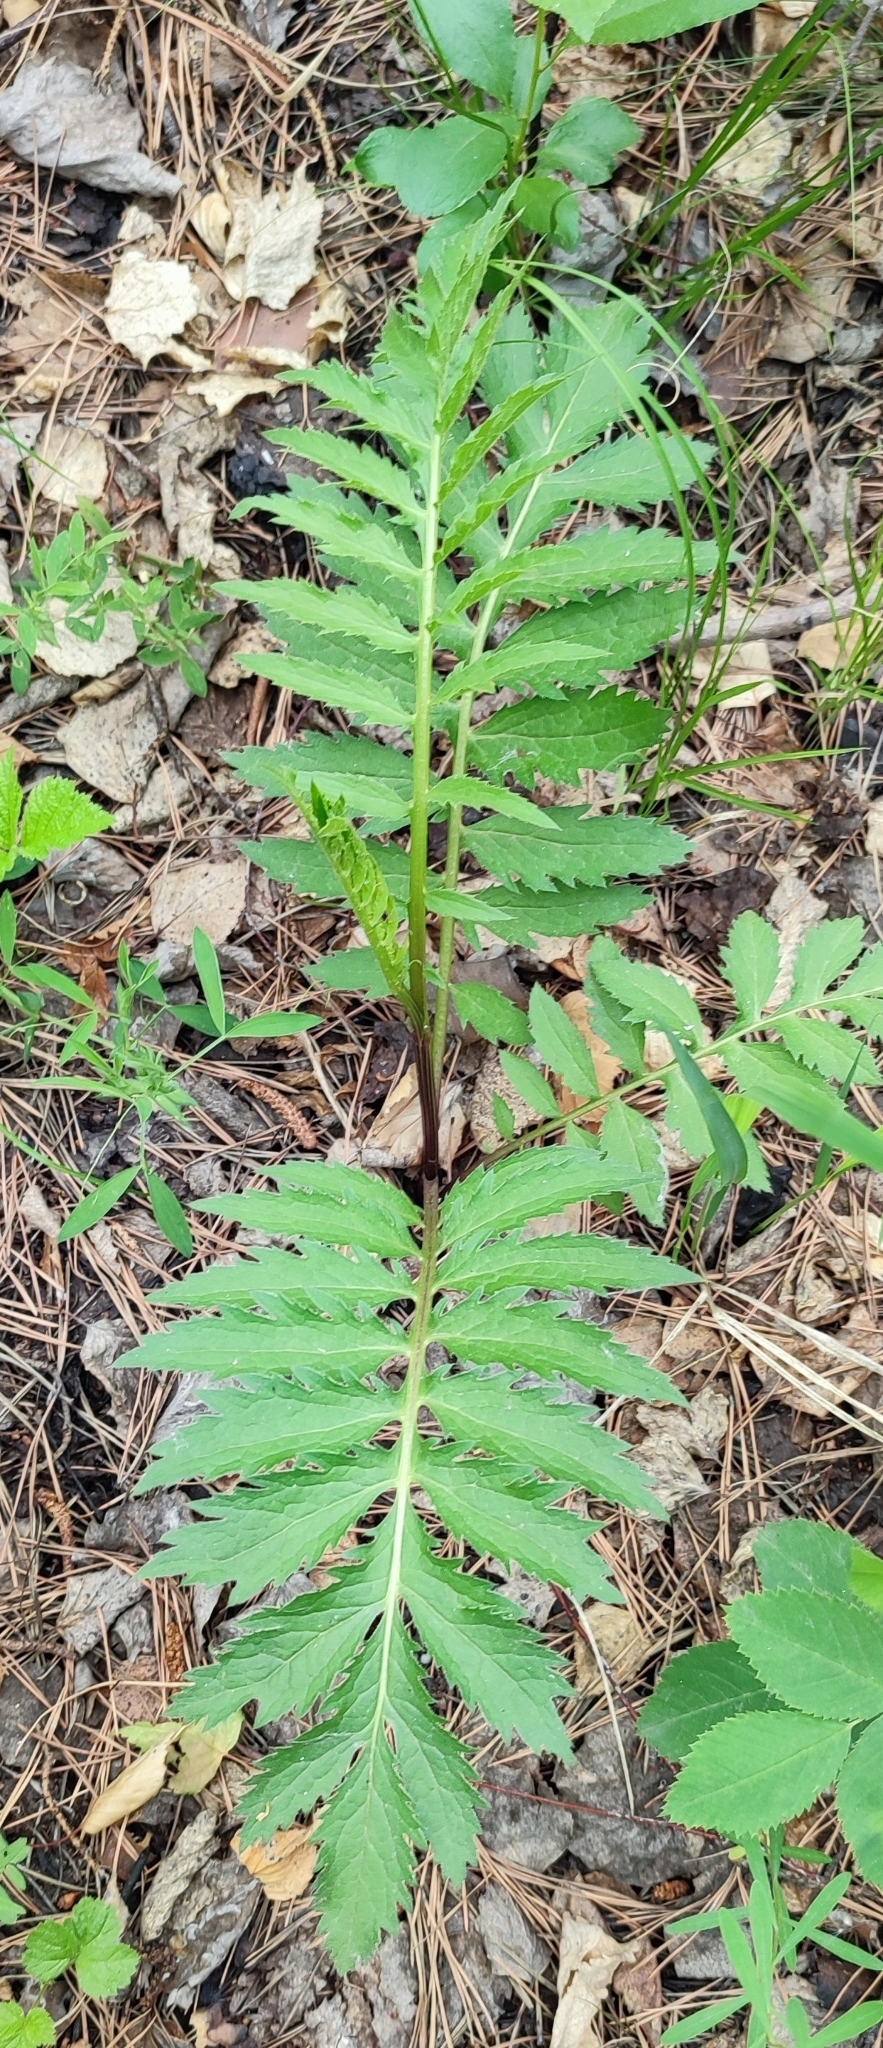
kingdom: Plantae
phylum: Tracheophyta
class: Magnoliopsida
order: Asterales
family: Asteraceae
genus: Serratula
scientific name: Serratula coronata
